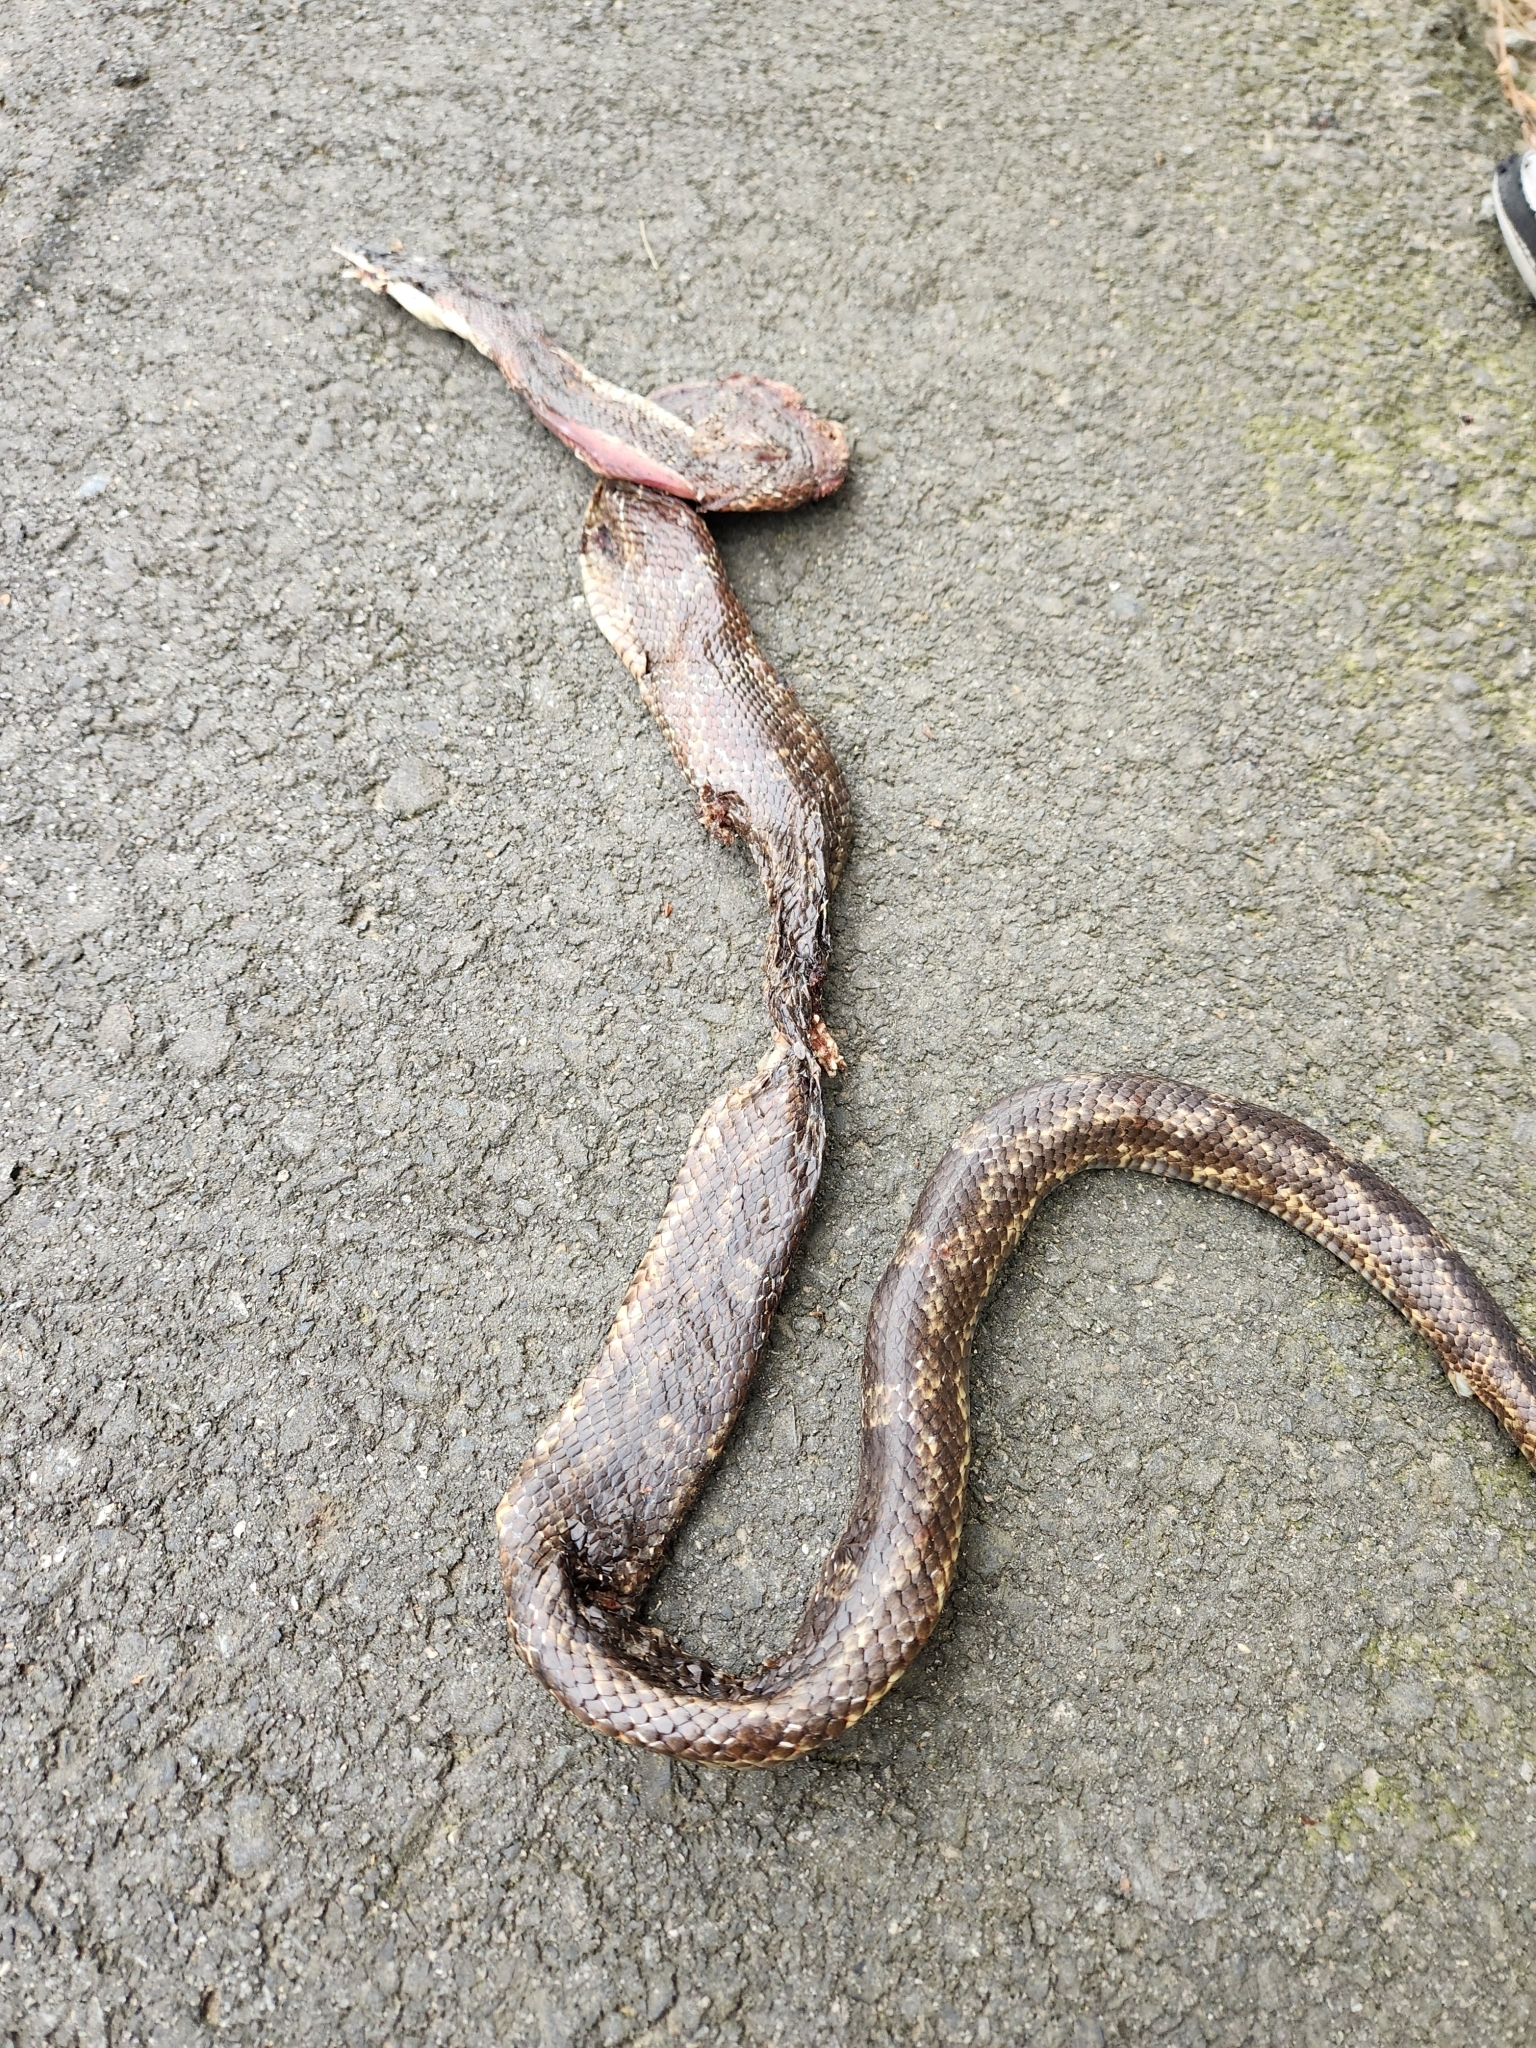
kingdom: Animalia
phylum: Chordata
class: Squamata
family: Colubridae
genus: Pantherophis
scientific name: Pantherophis obsoletus
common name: Black rat snake
